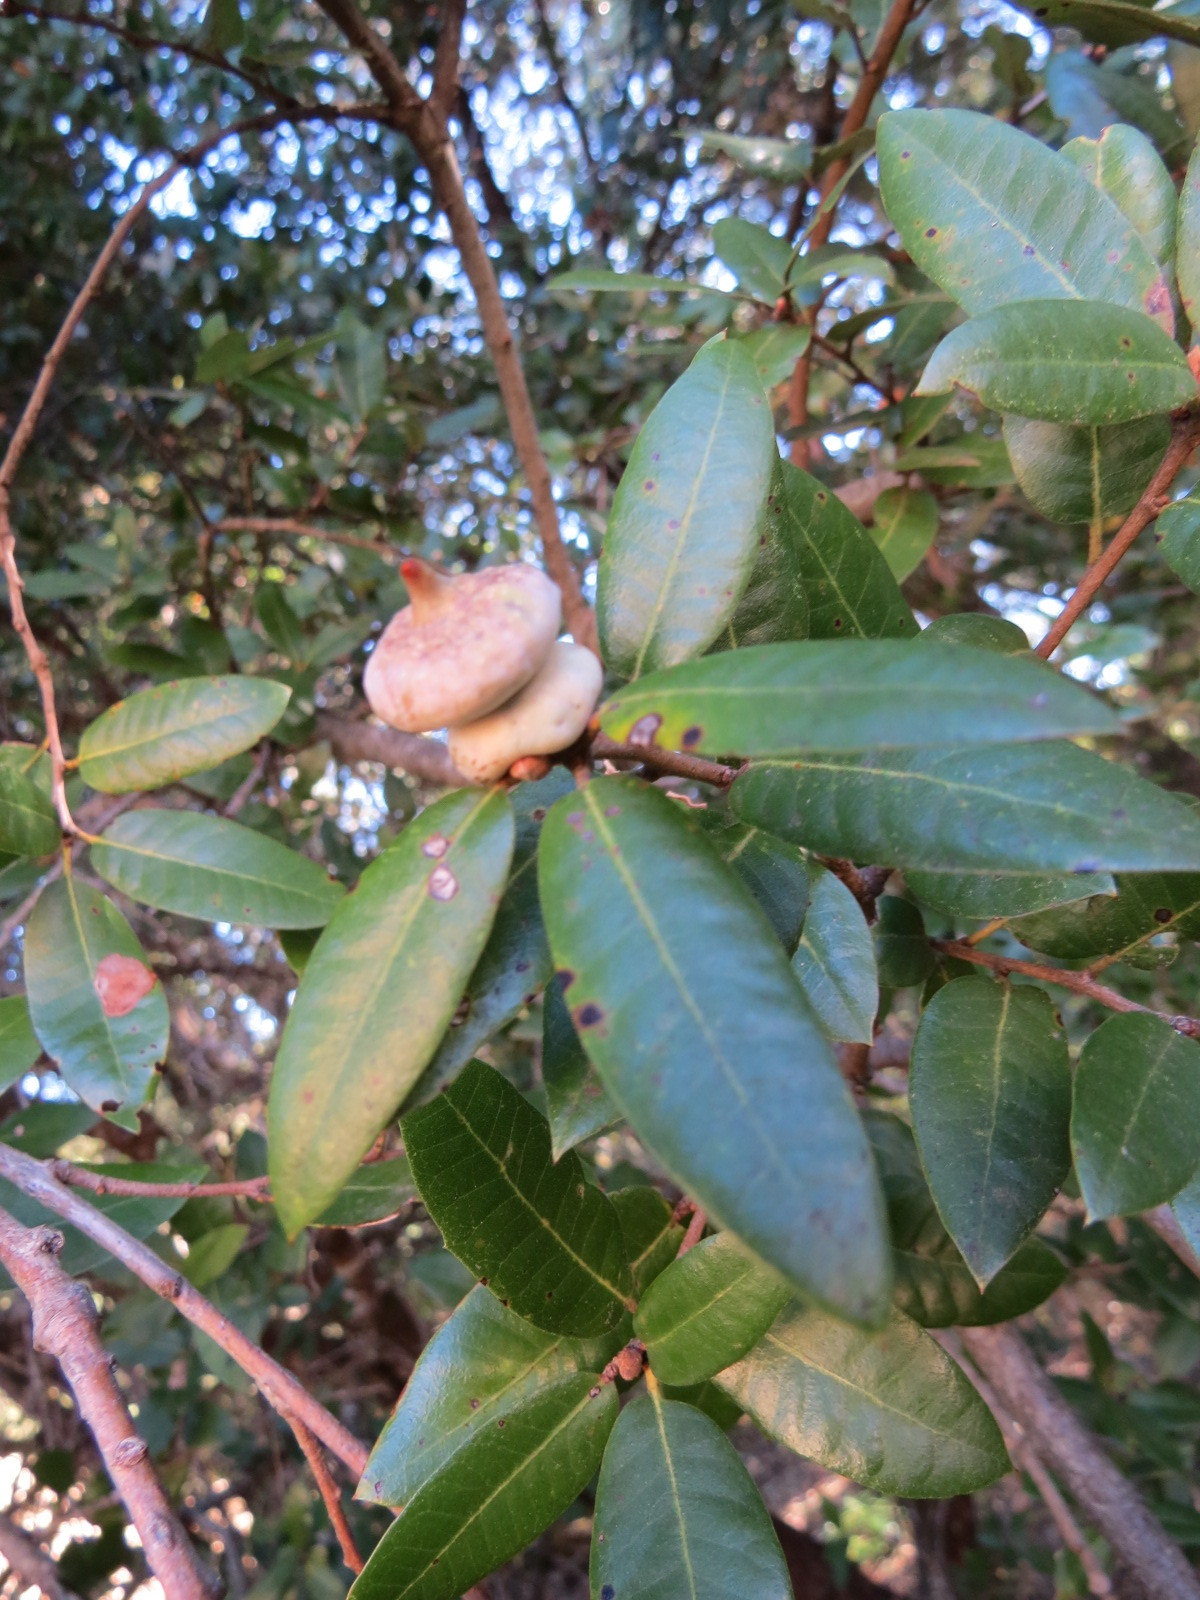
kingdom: Animalia
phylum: Arthropoda
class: Insecta
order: Hymenoptera
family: Cynipidae
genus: Heteroecus
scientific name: Heteroecus
